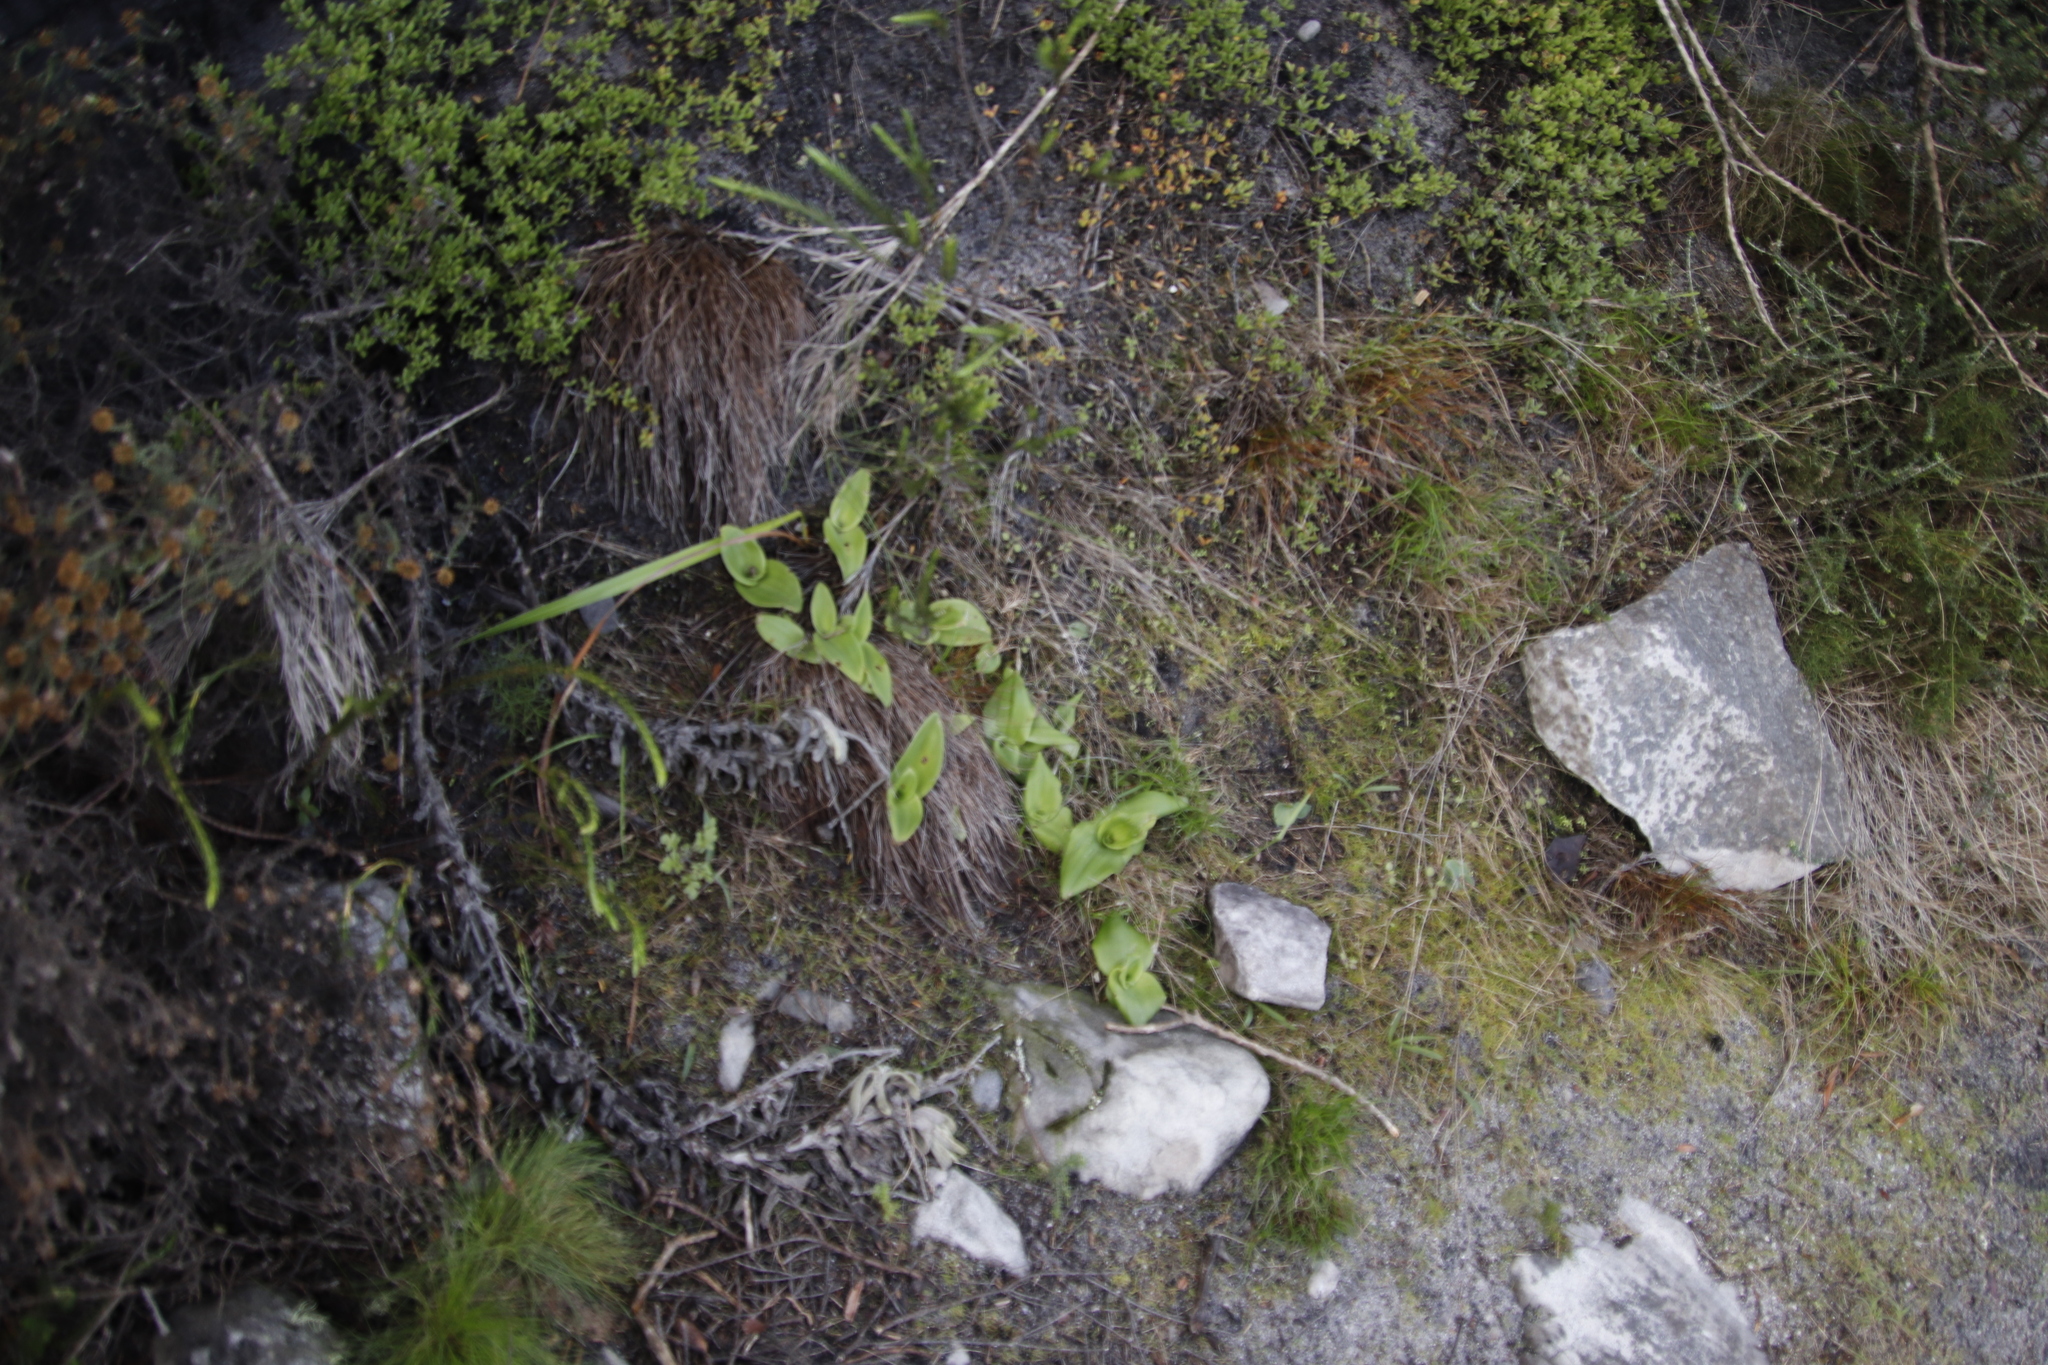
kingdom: Plantae
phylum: Tracheophyta
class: Liliopsida
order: Asparagales
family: Orchidaceae
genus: Satyrium
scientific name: Satyrium odorum
